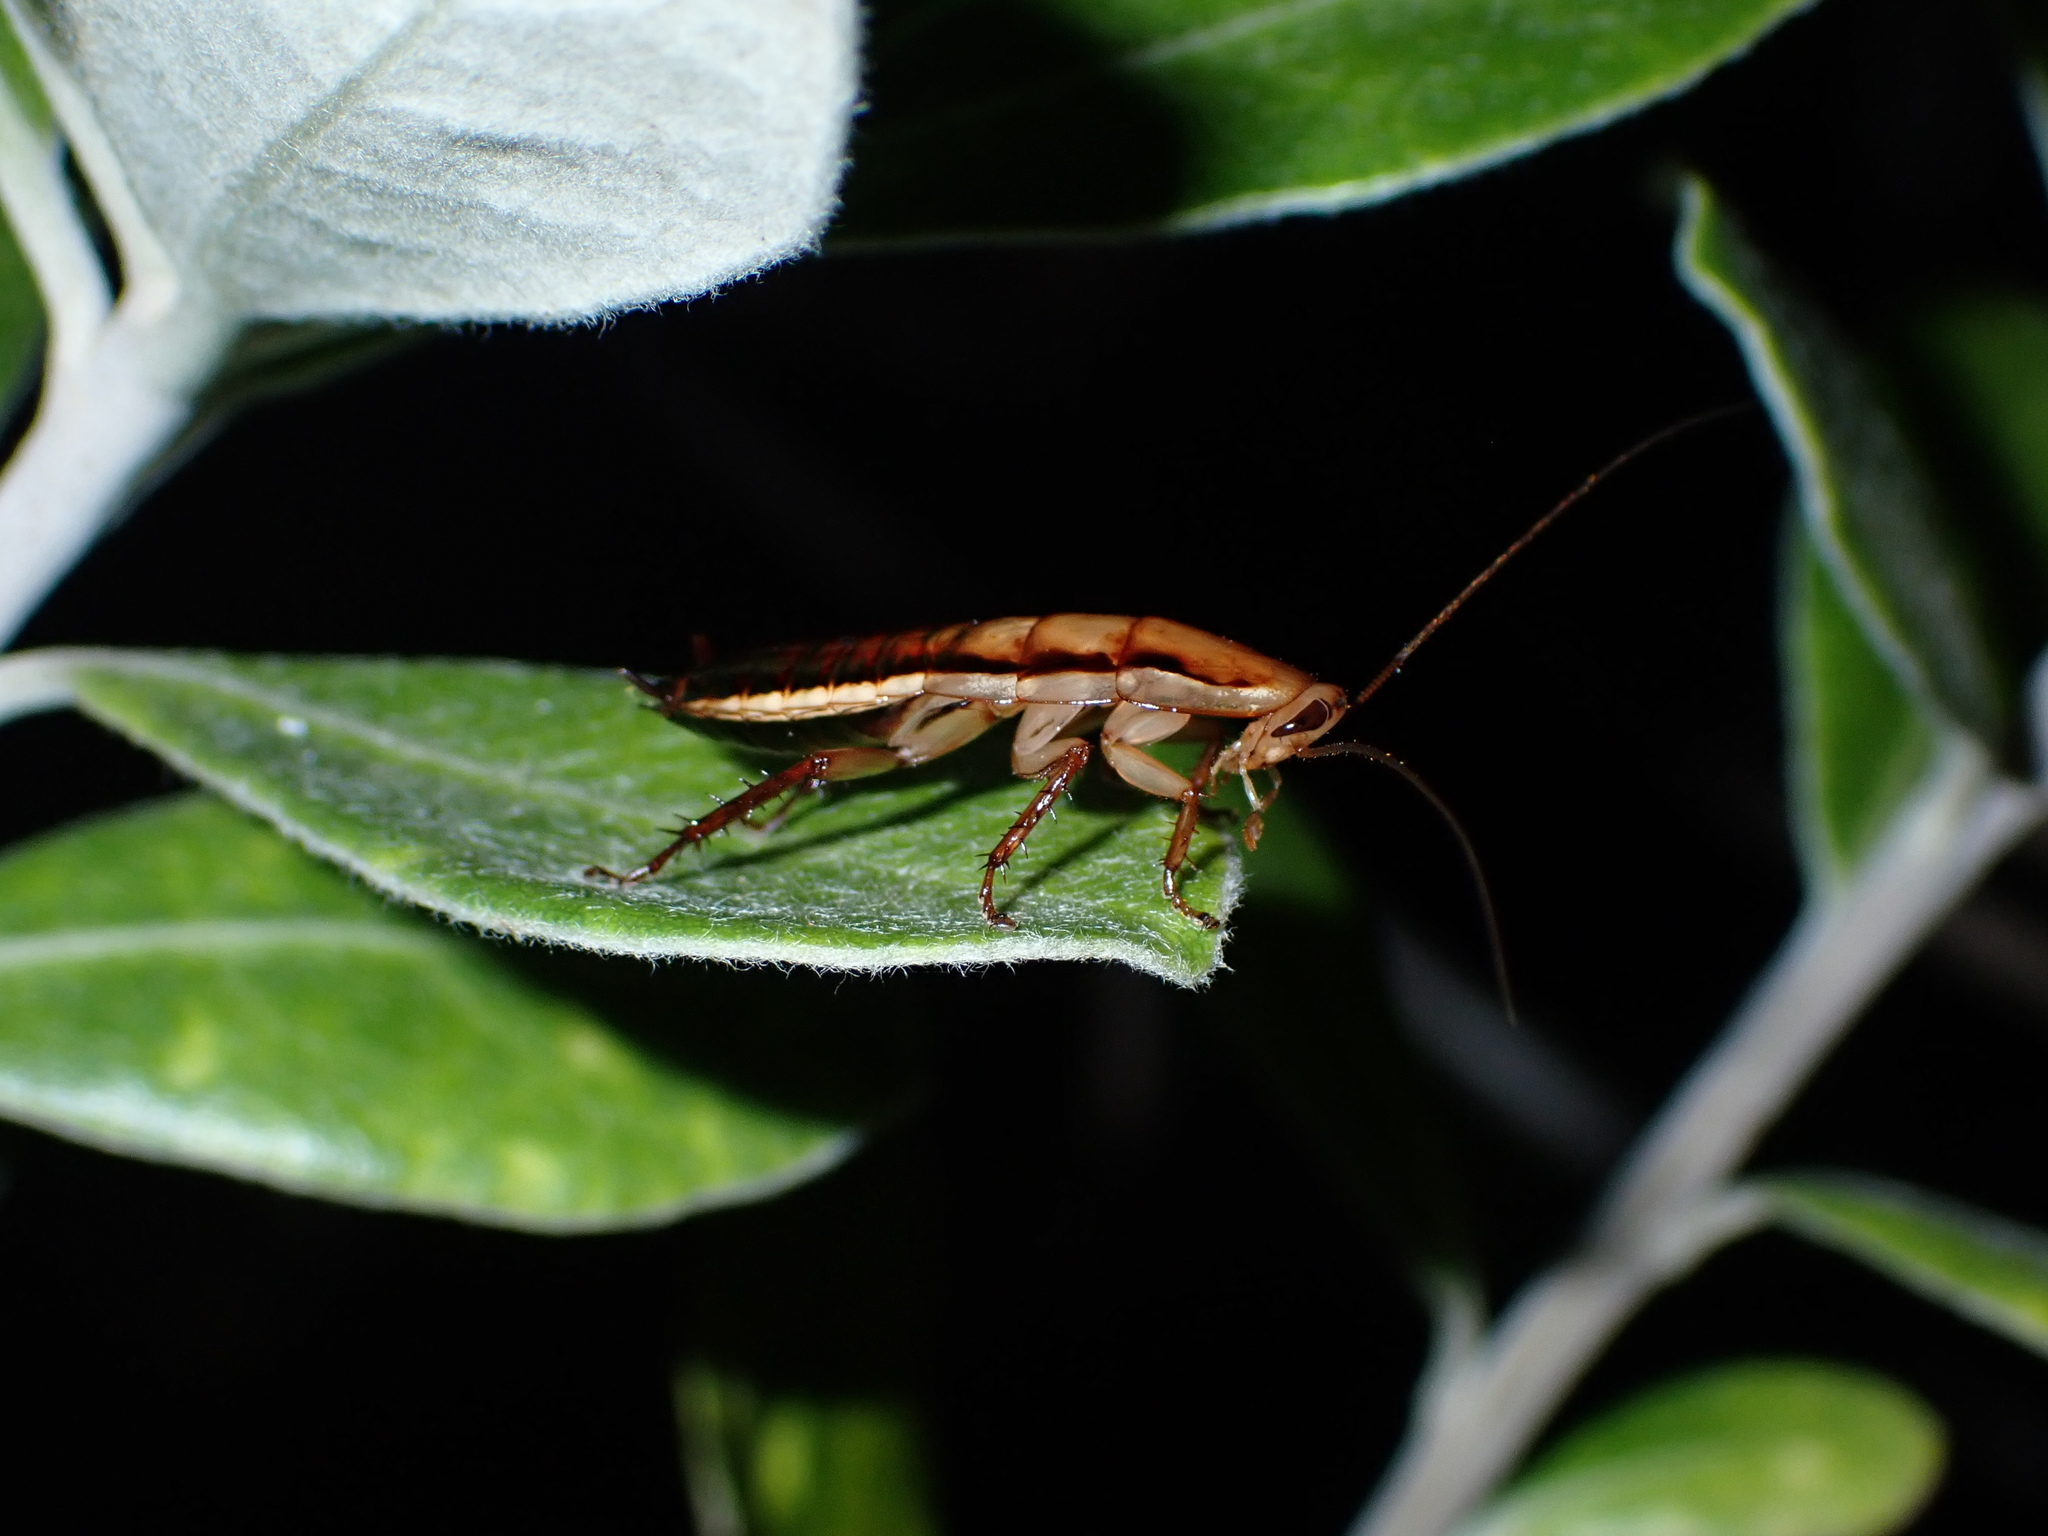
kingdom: Animalia
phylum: Arthropoda
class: Insecta
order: Blattodea
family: Blattidae
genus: Drymaplaneta
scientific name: Drymaplaneta heydeniana
